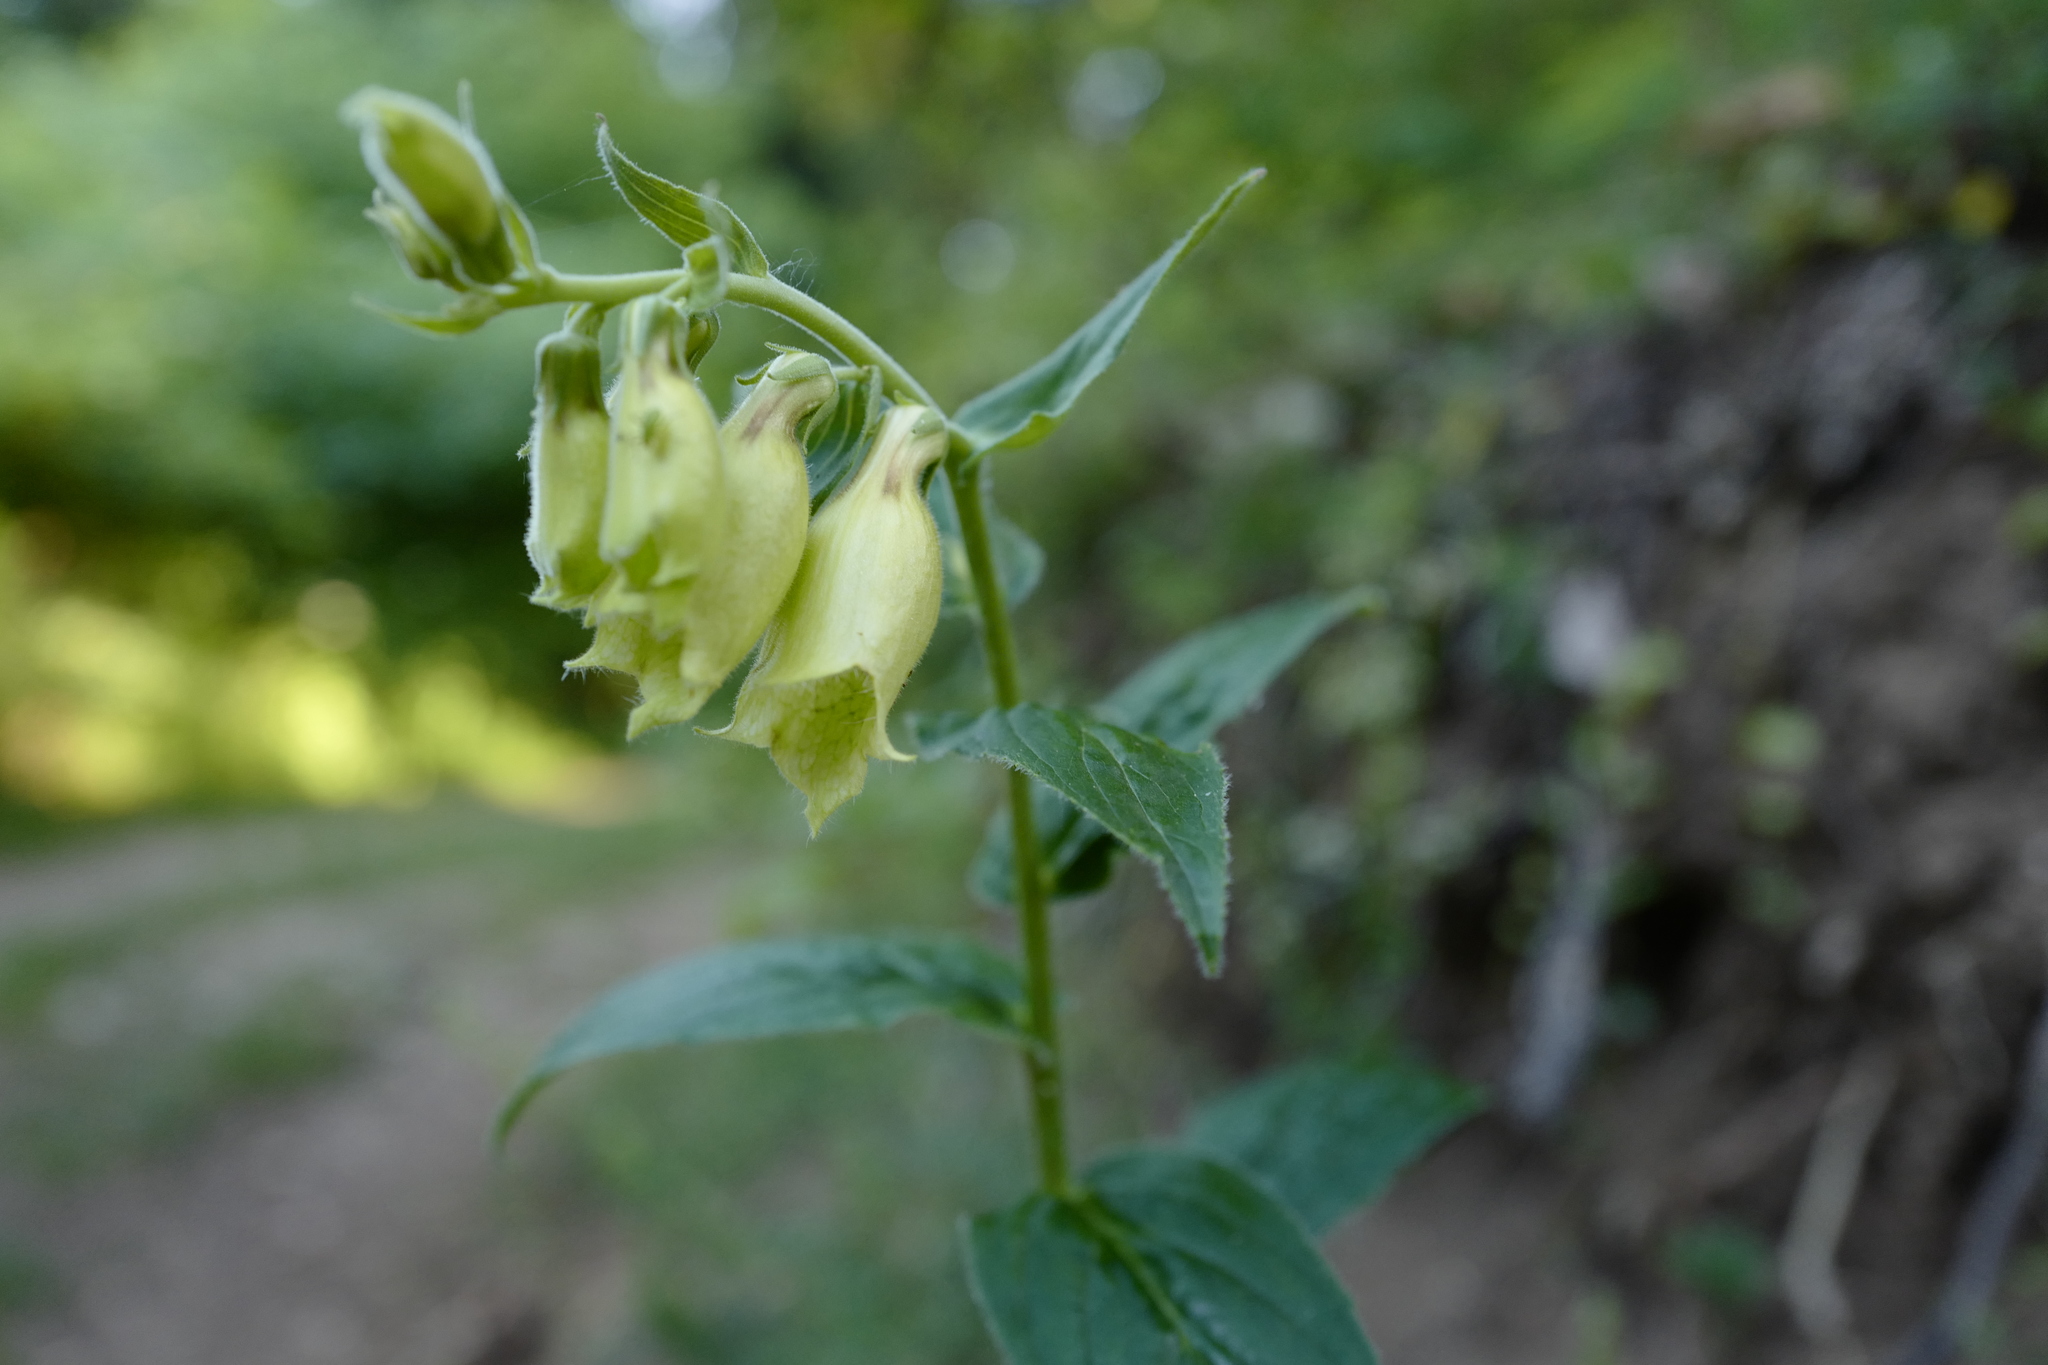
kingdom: Plantae
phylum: Tracheophyta
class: Magnoliopsida
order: Lamiales
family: Plantaginaceae
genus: Digitalis
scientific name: Digitalis grandiflora
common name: Yellow foxglove
